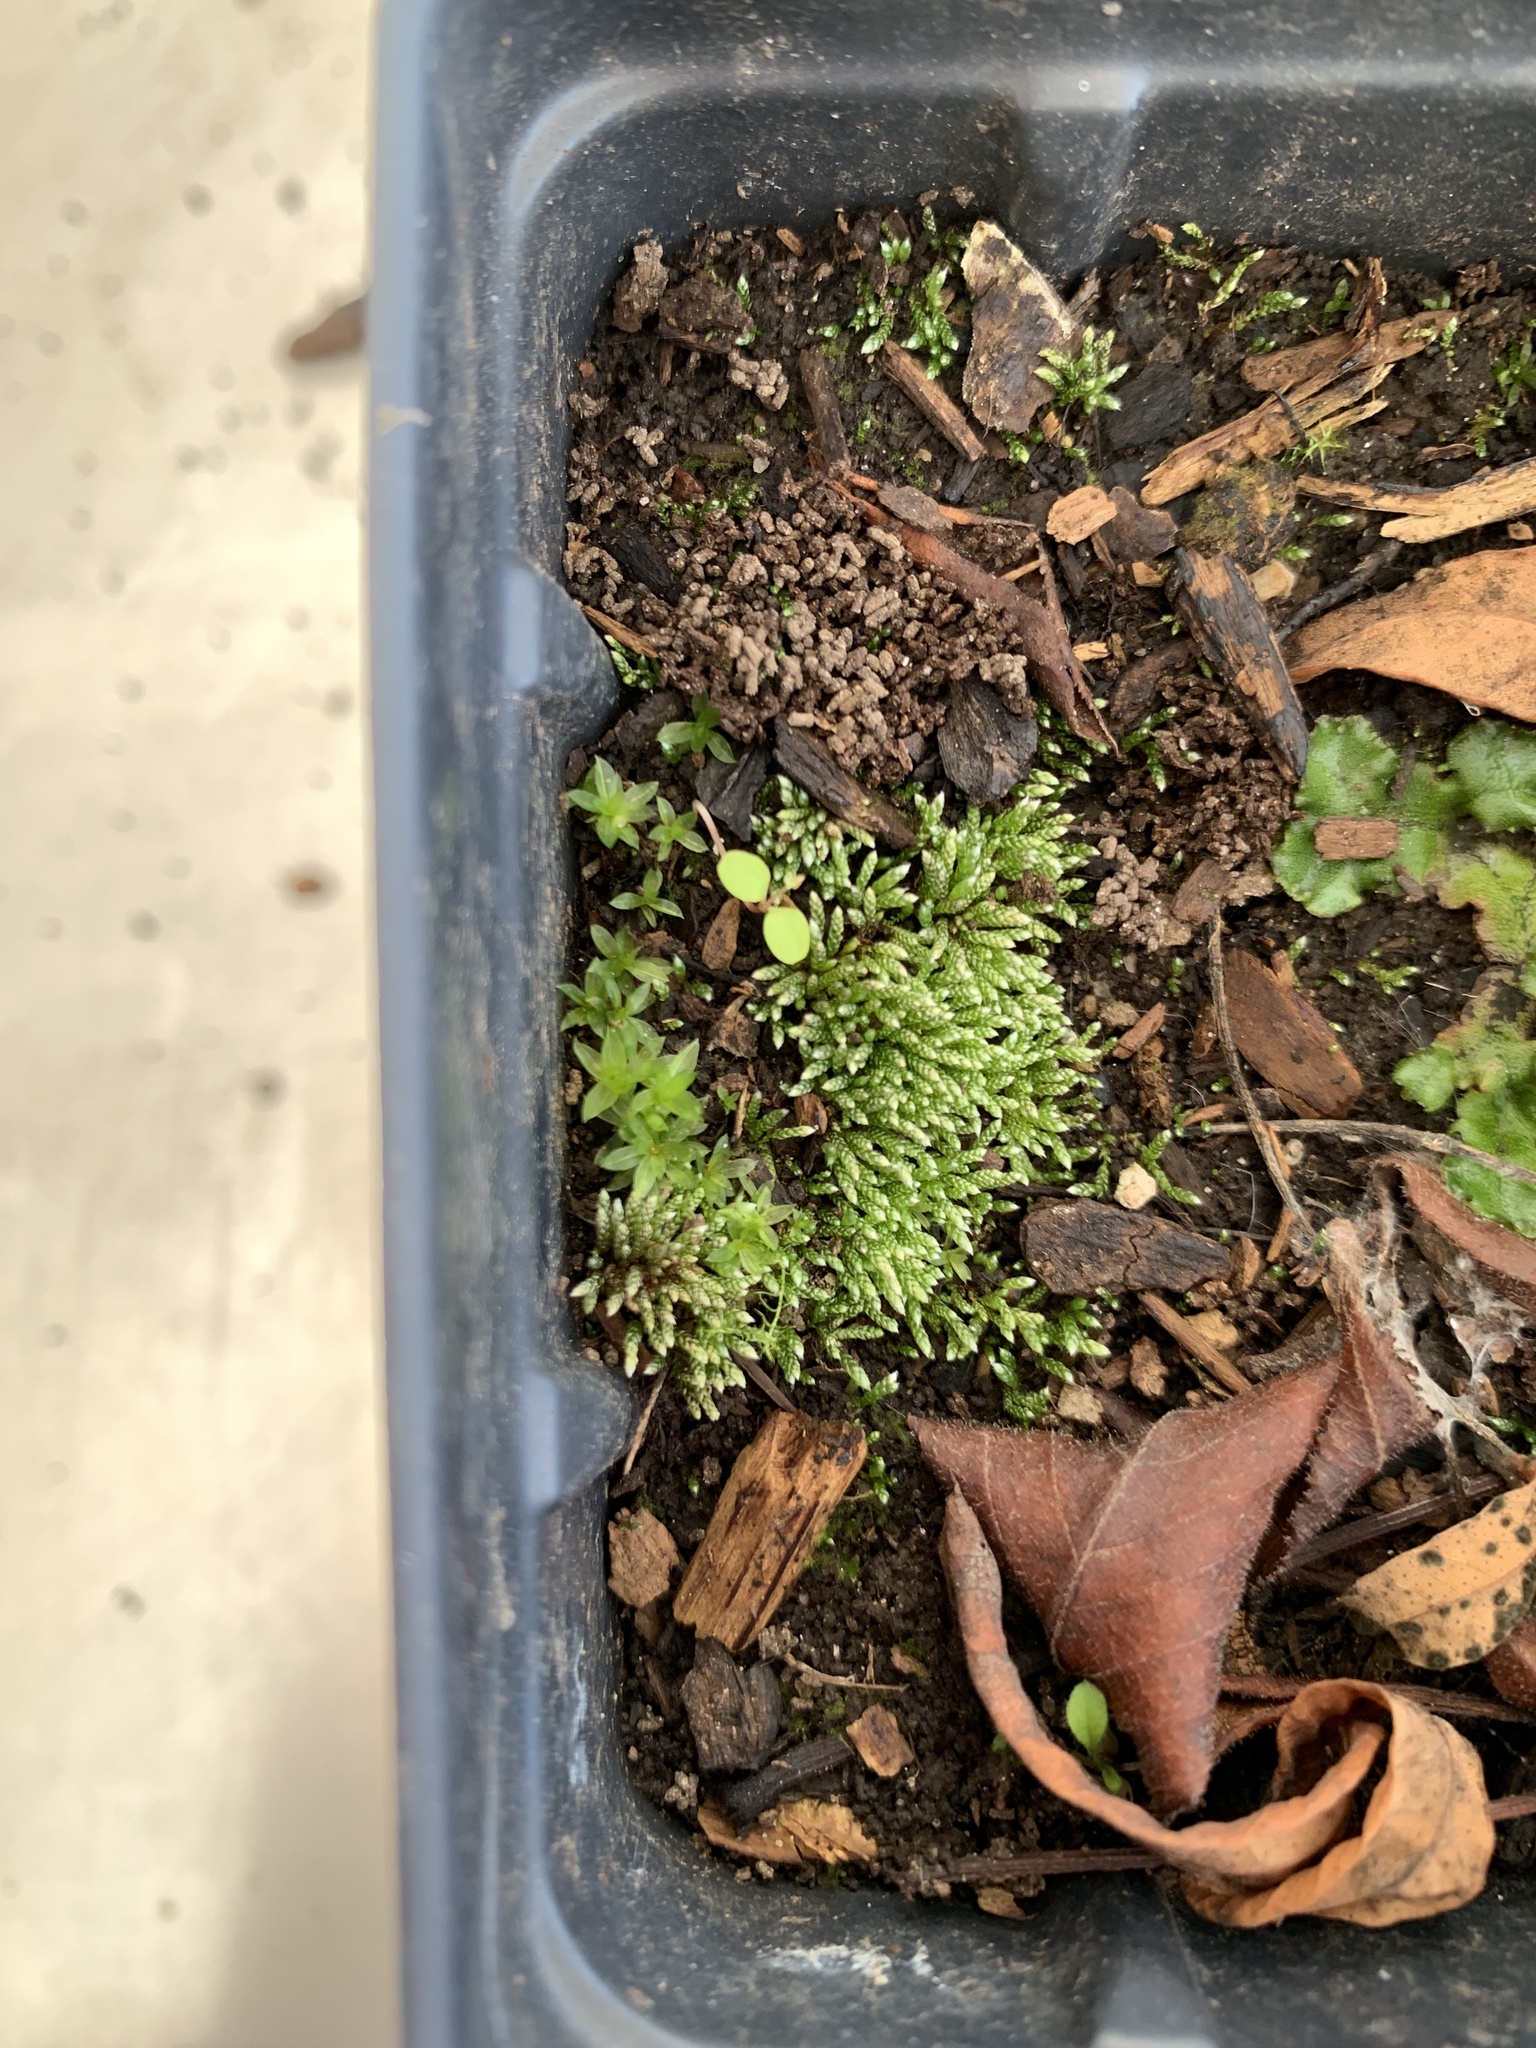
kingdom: Plantae
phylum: Bryophyta
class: Bryopsida
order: Bryales
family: Bryaceae
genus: Bryum
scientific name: Bryum argenteum
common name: Silver-moss
